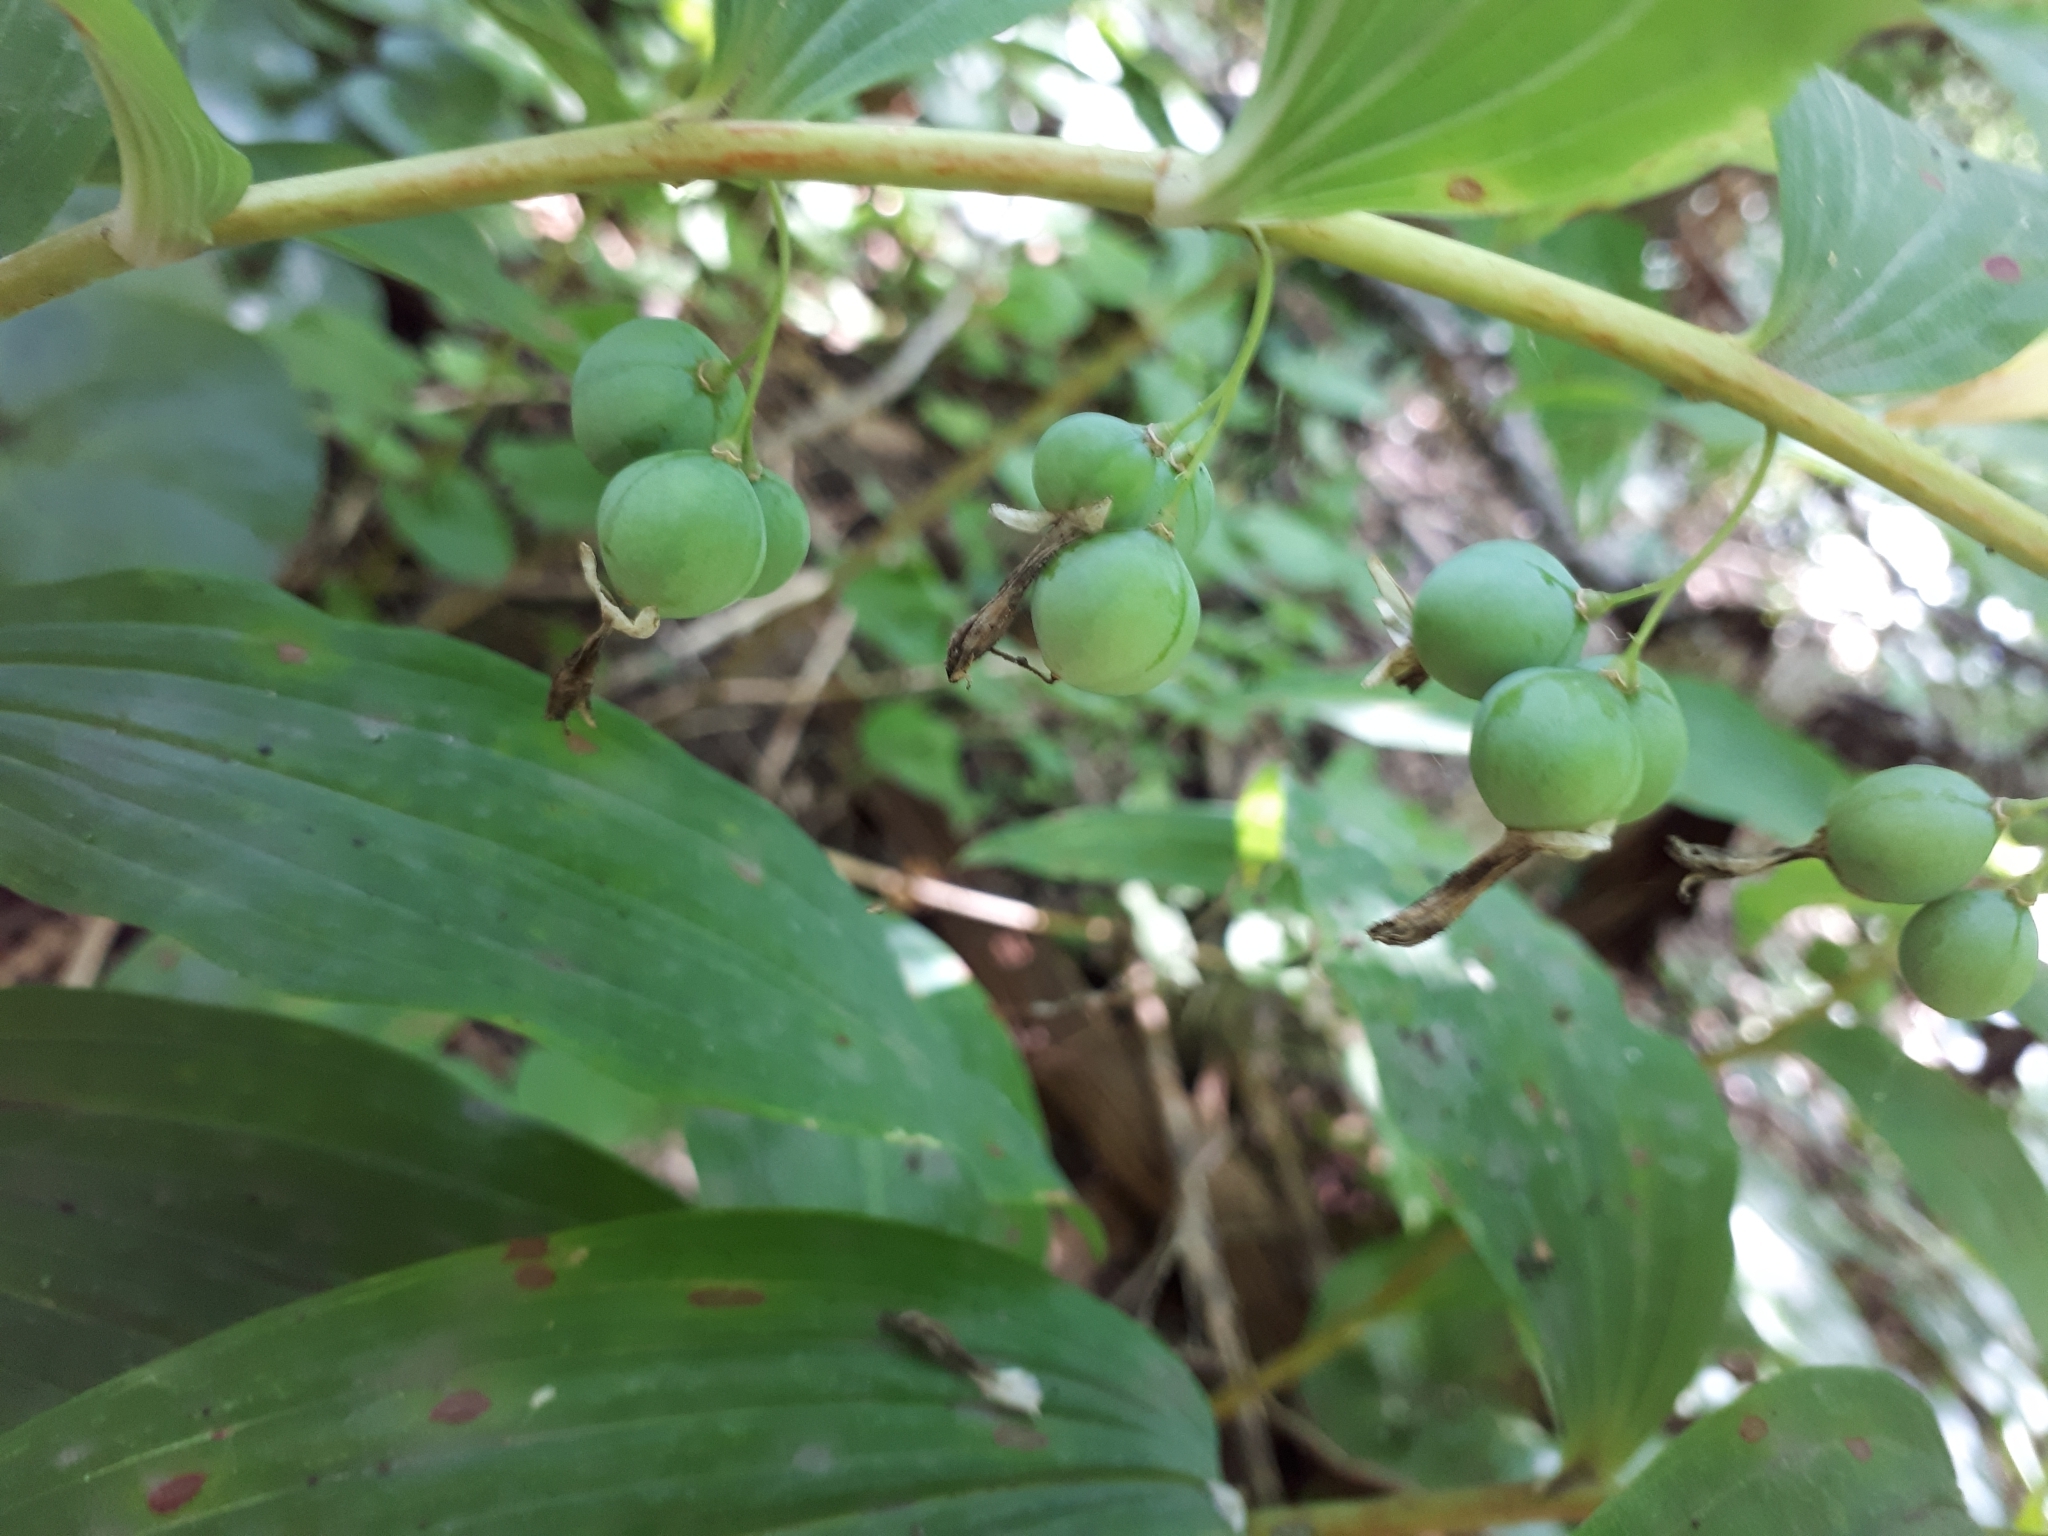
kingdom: Plantae
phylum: Tracheophyta
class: Liliopsida
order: Asparagales
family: Asparagaceae
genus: Polygonatum
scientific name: Polygonatum multiflorum
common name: Solomon's-seal
